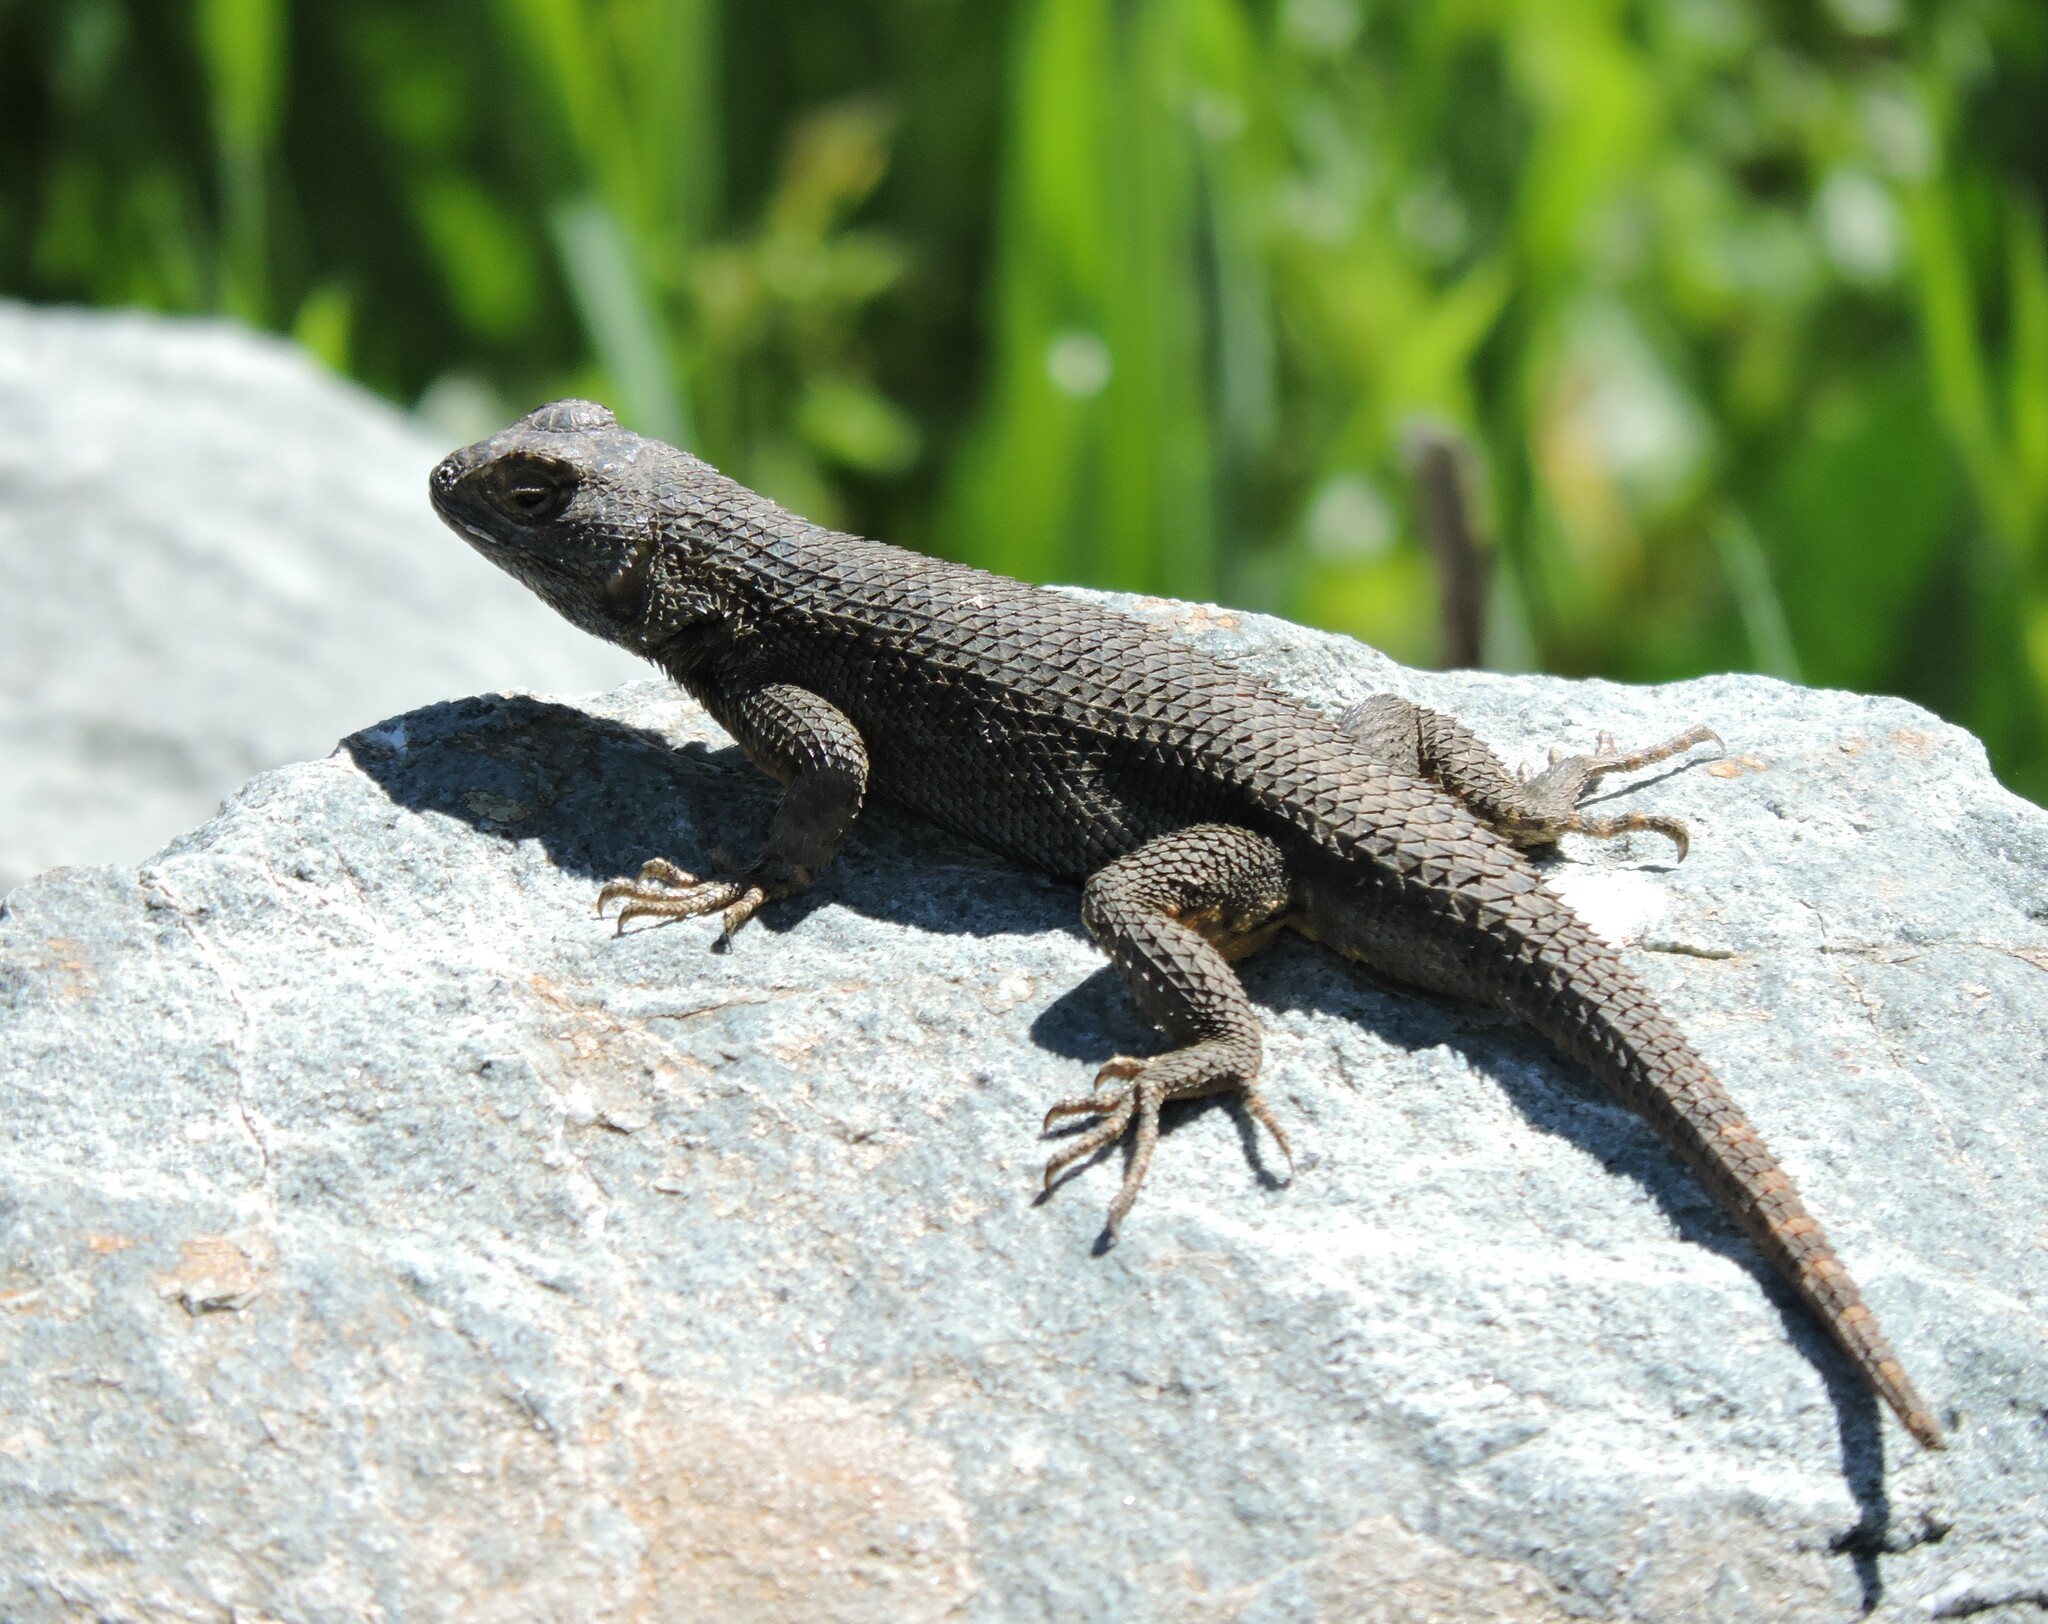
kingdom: Animalia
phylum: Chordata
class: Squamata
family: Phrynosomatidae
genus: Sceloporus
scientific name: Sceloporus occidentalis
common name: Western fence lizard
